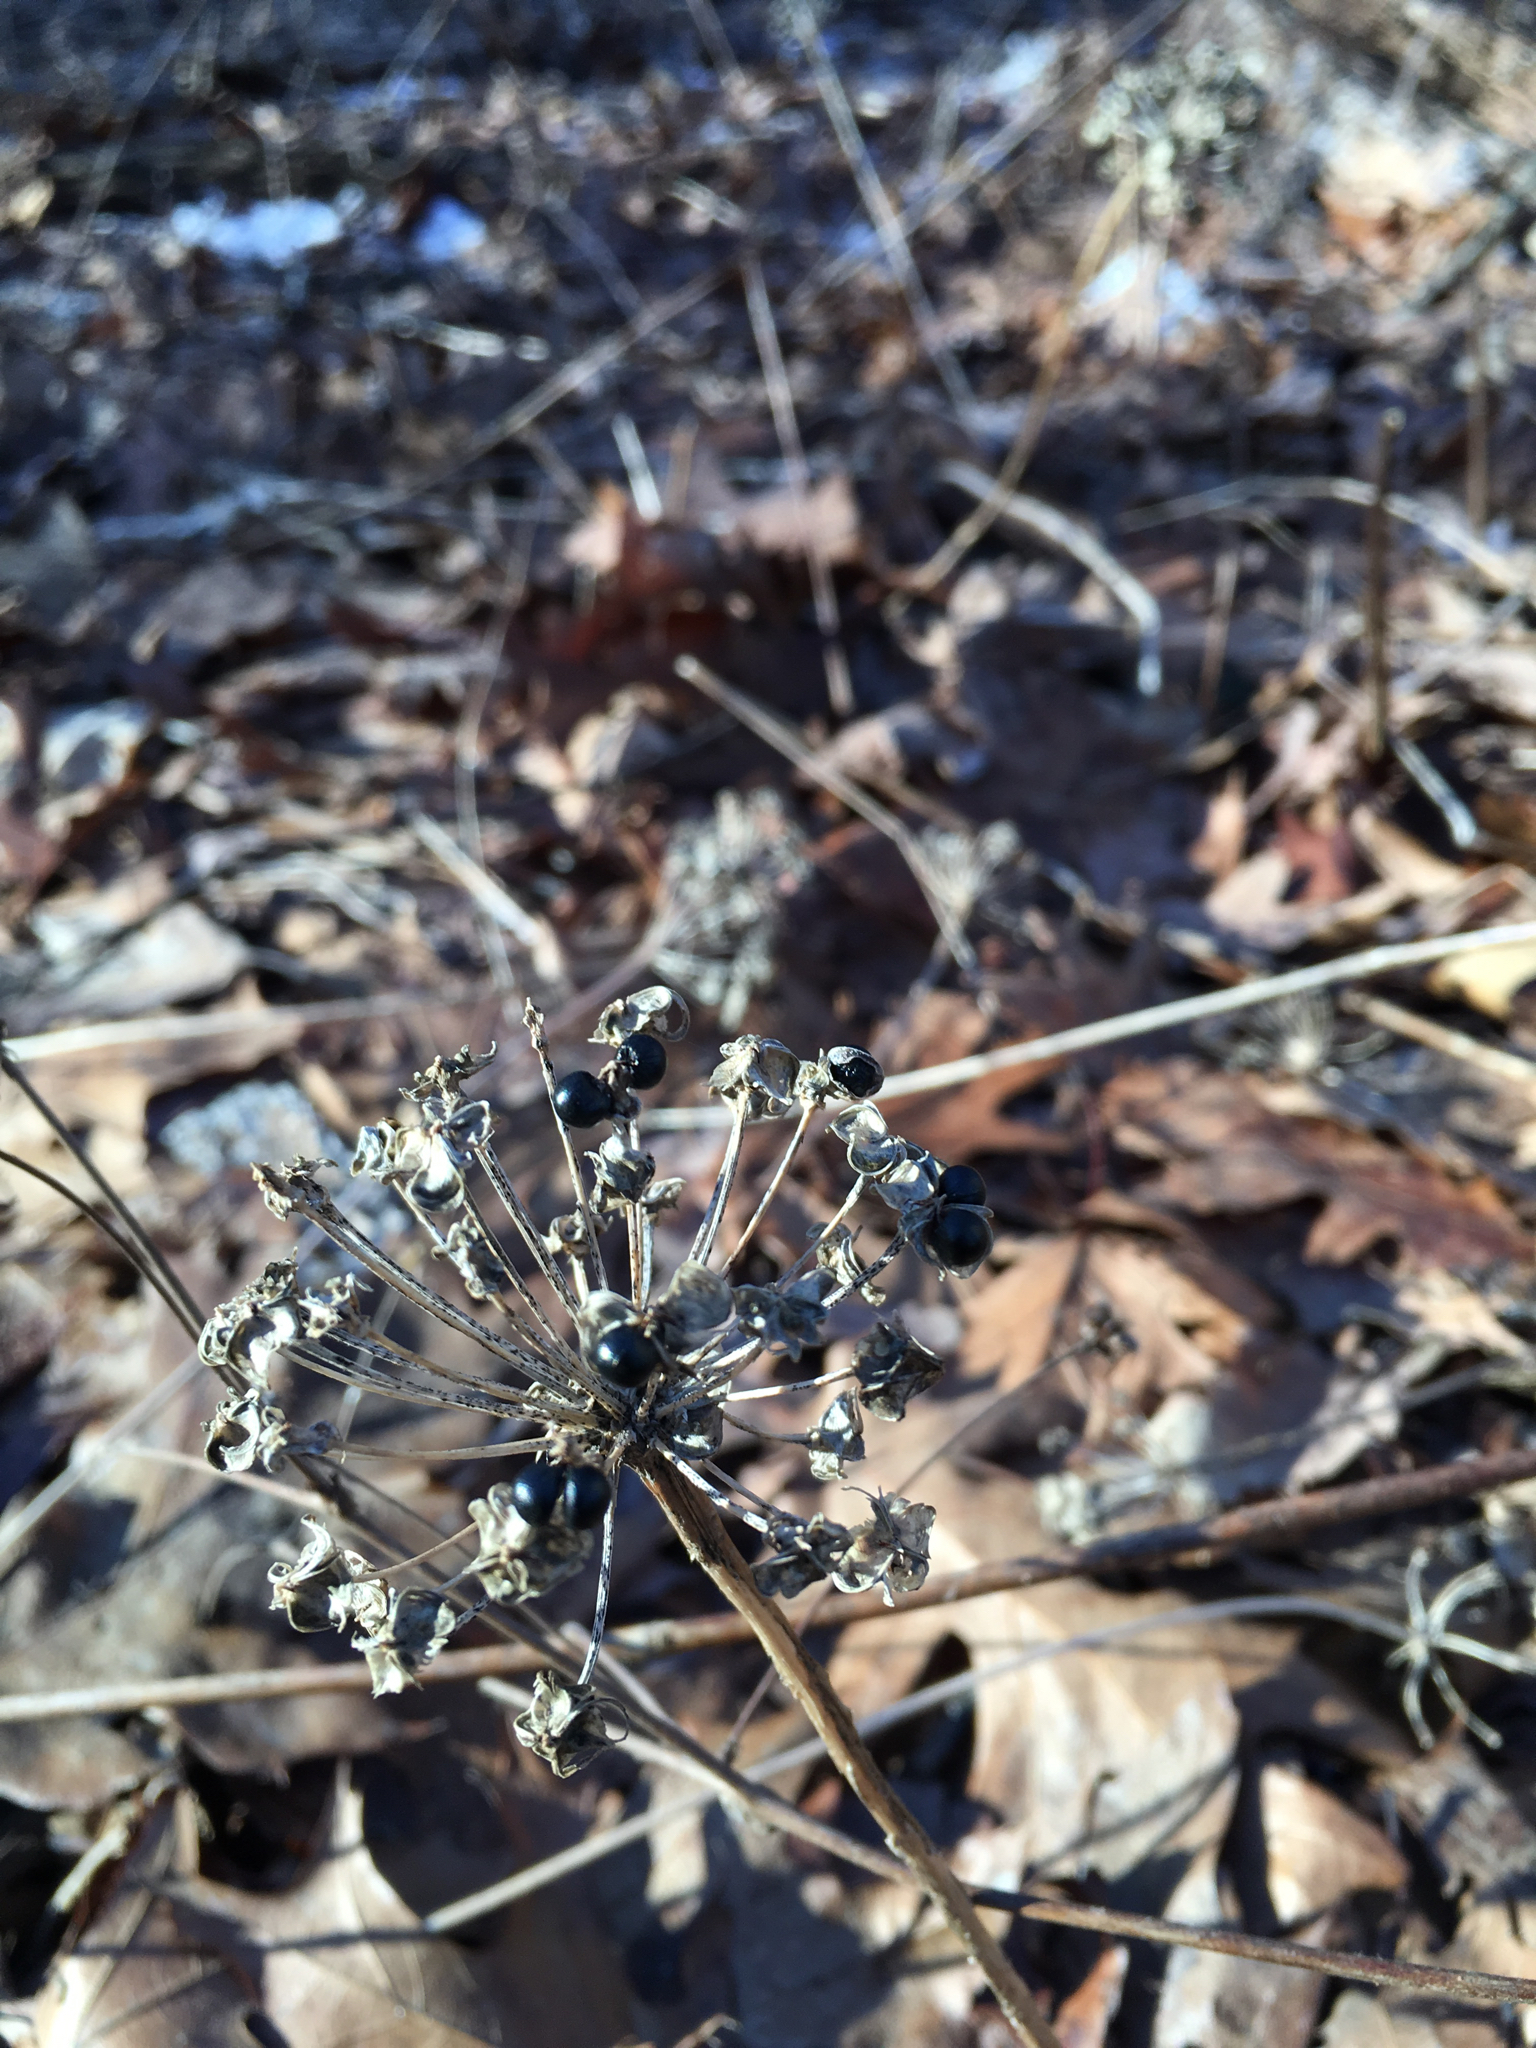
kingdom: Plantae
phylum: Tracheophyta
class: Liliopsida
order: Asparagales
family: Amaryllidaceae
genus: Allium
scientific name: Allium tricoccum
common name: Ramp
